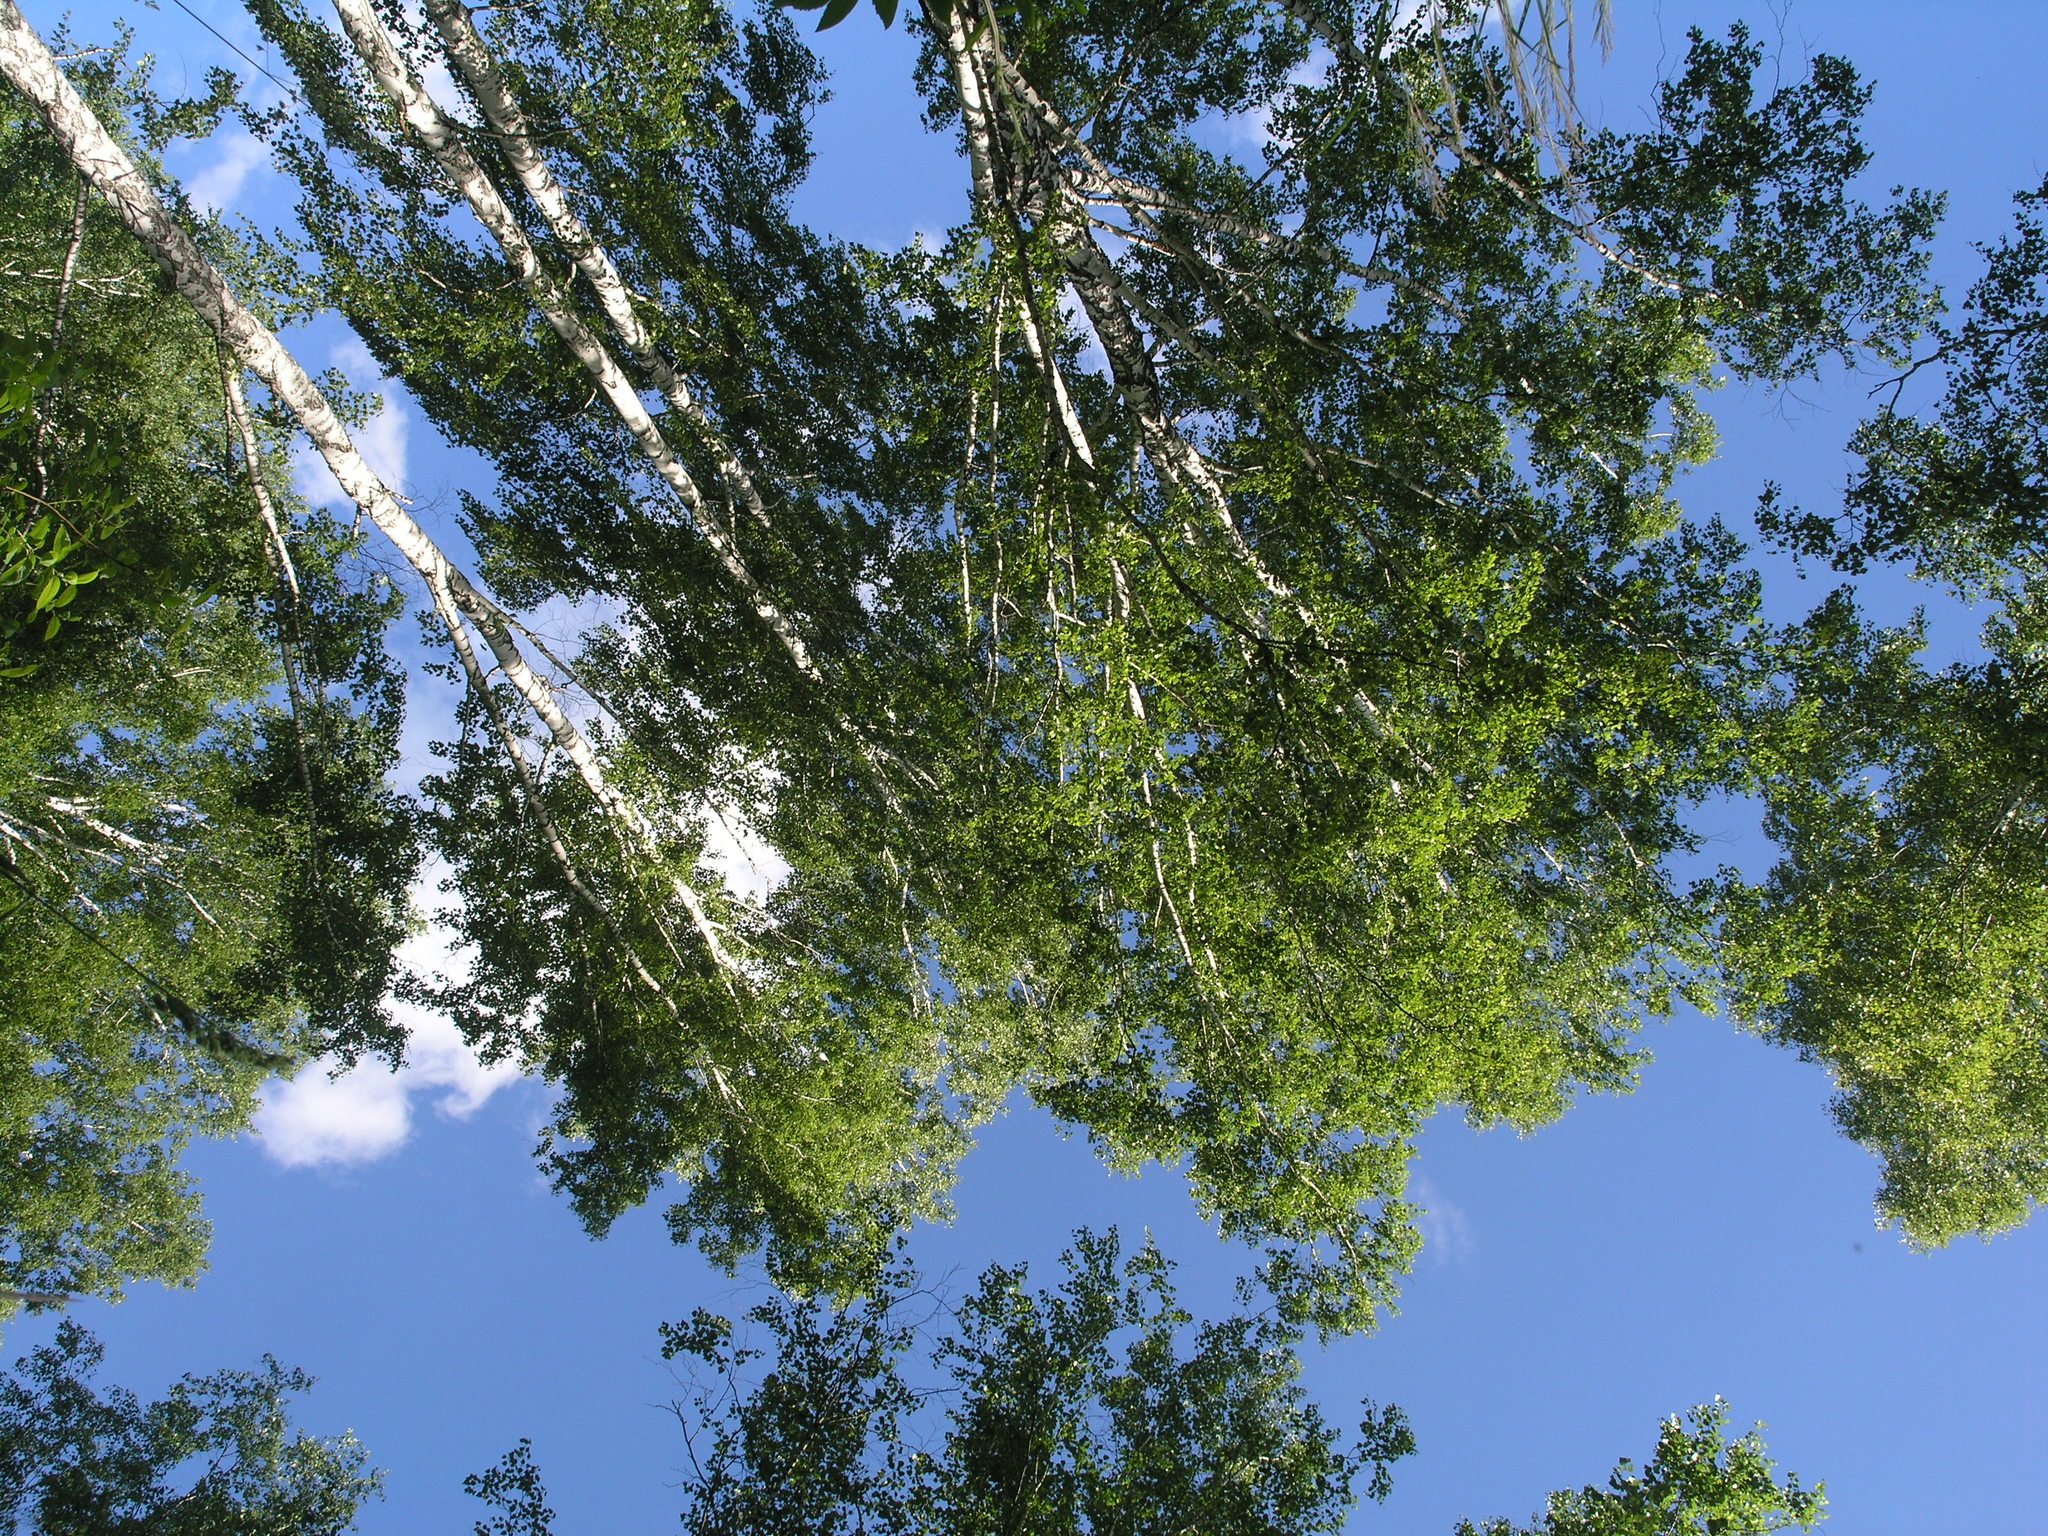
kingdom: Plantae
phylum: Tracheophyta
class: Magnoliopsida
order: Fagales
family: Betulaceae
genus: Betula
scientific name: Betula pendula
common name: Silver birch
